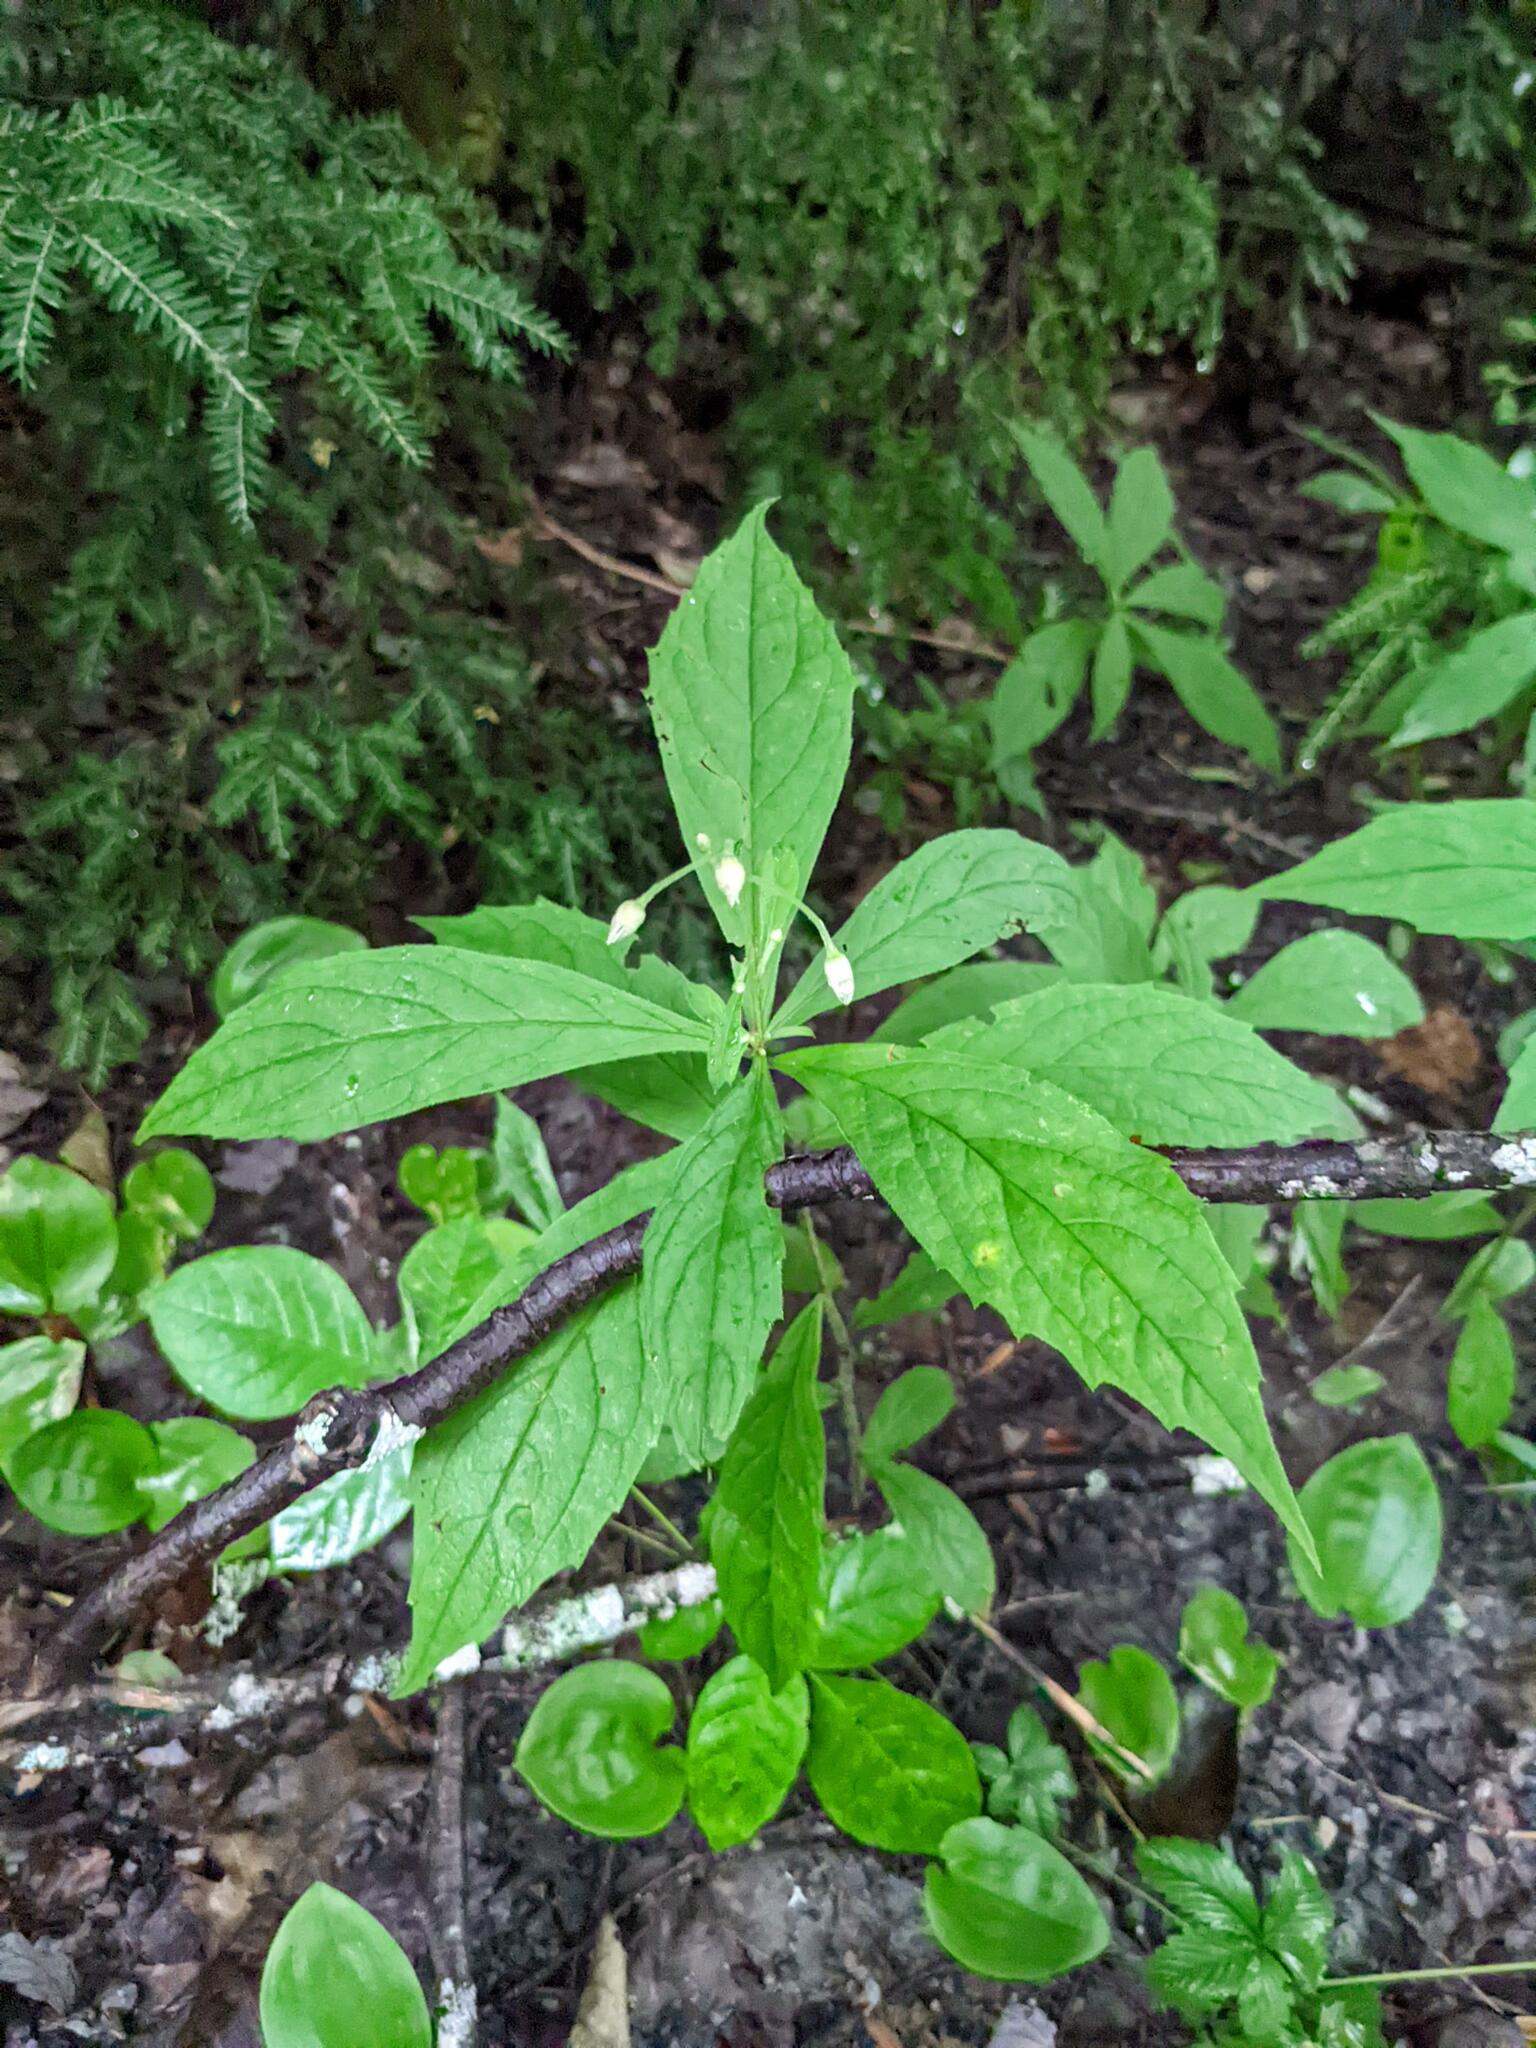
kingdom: Plantae
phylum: Tracheophyta
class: Magnoliopsida
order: Asterales
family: Asteraceae
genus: Oclemena
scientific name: Oclemena acuminata
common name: Mountain aster
